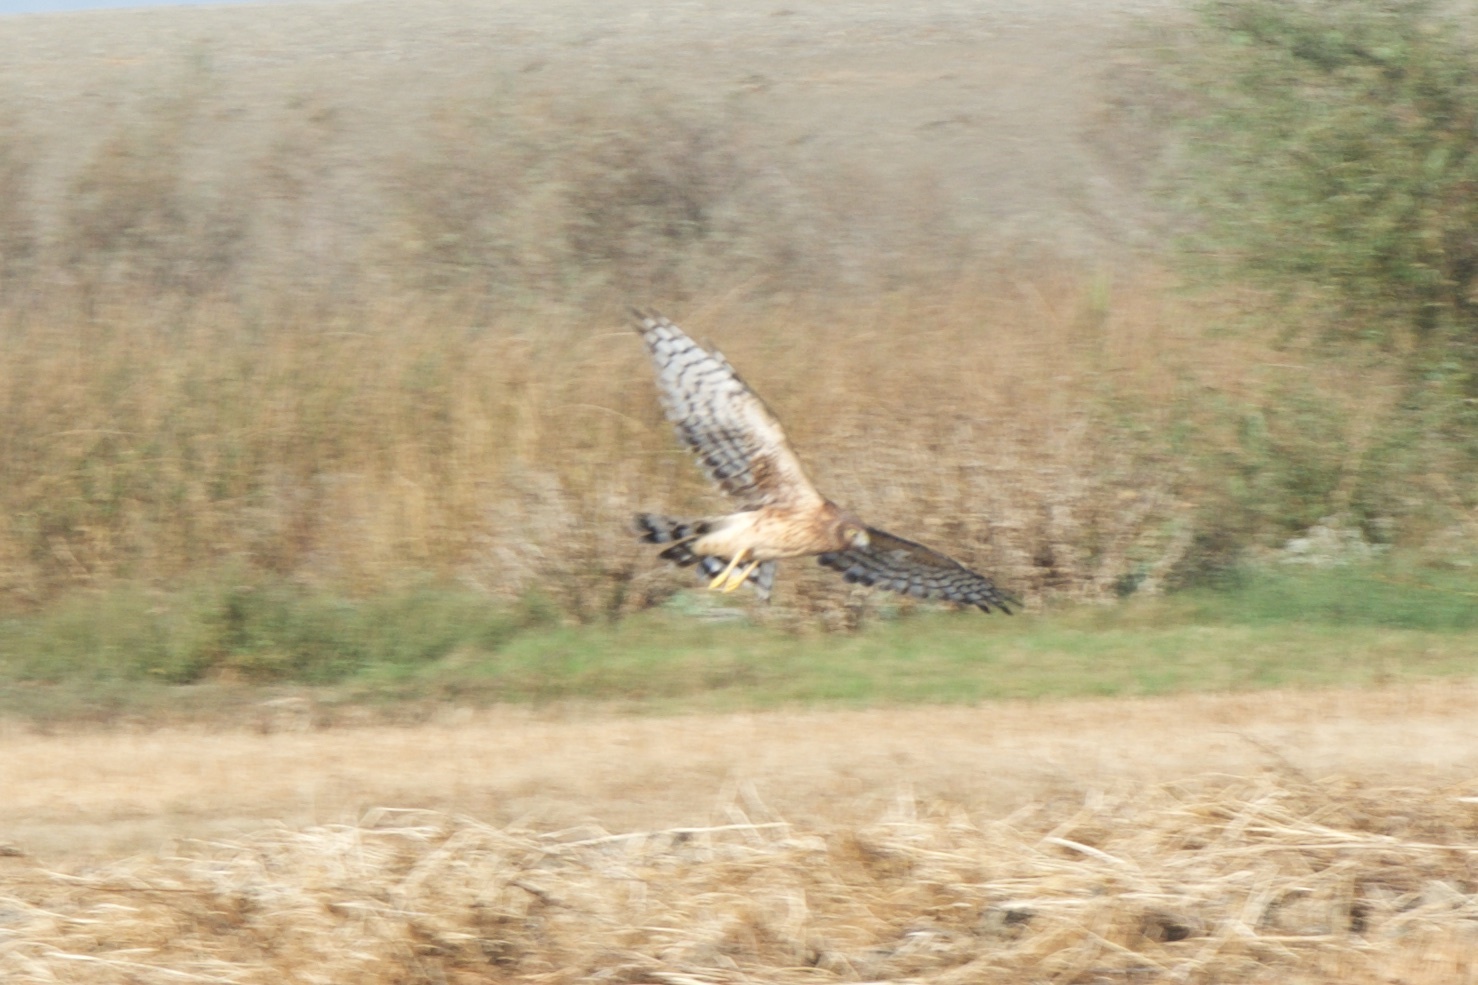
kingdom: Animalia
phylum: Chordata
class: Aves
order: Accipitriformes
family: Accipitridae
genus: Circus
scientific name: Circus cyaneus
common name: Hen harrier
